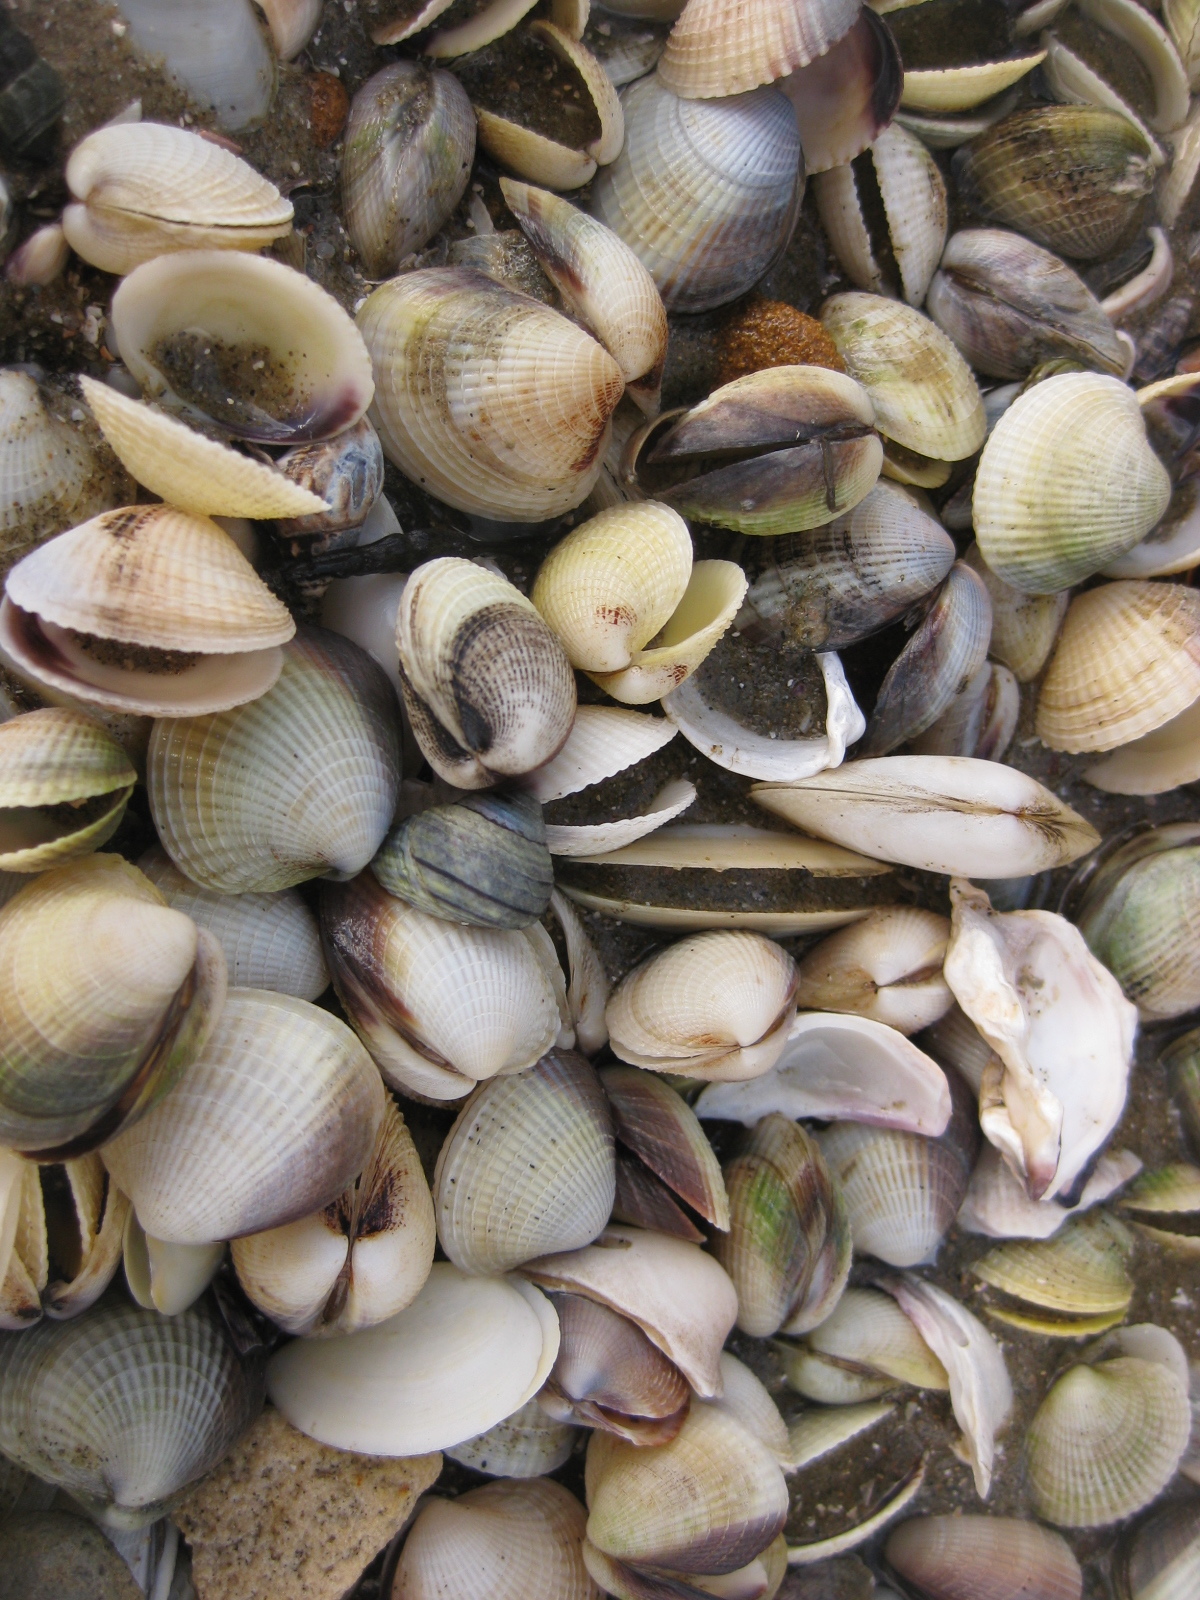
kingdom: Animalia
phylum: Mollusca
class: Bivalvia
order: Venerida
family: Veneridae
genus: Austrovenus
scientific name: Austrovenus stutchburyi
